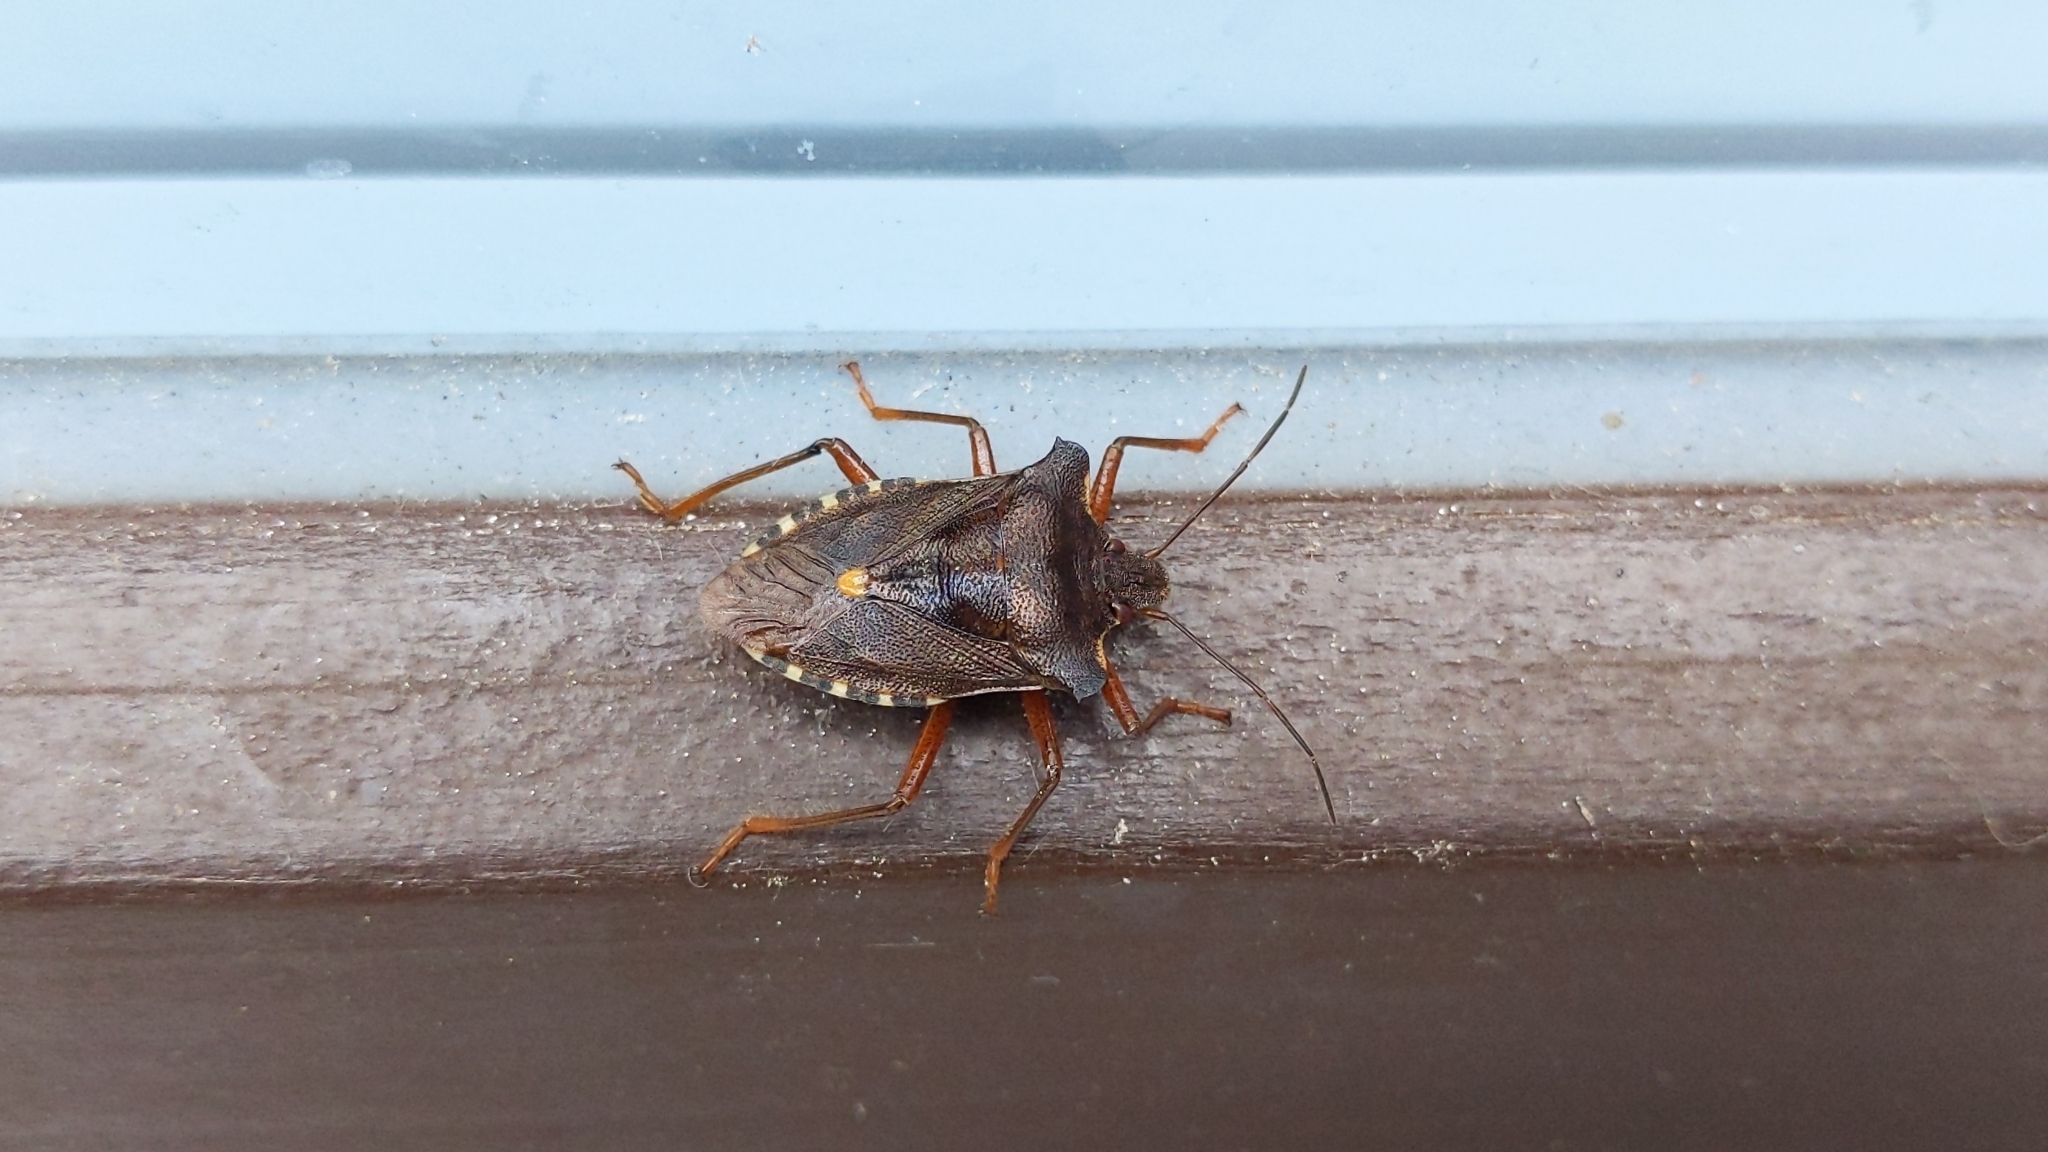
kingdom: Animalia
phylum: Arthropoda
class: Insecta
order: Hemiptera
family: Pentatomidae
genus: Pentatoma
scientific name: Pentatoma rufipes
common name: Forest bug
